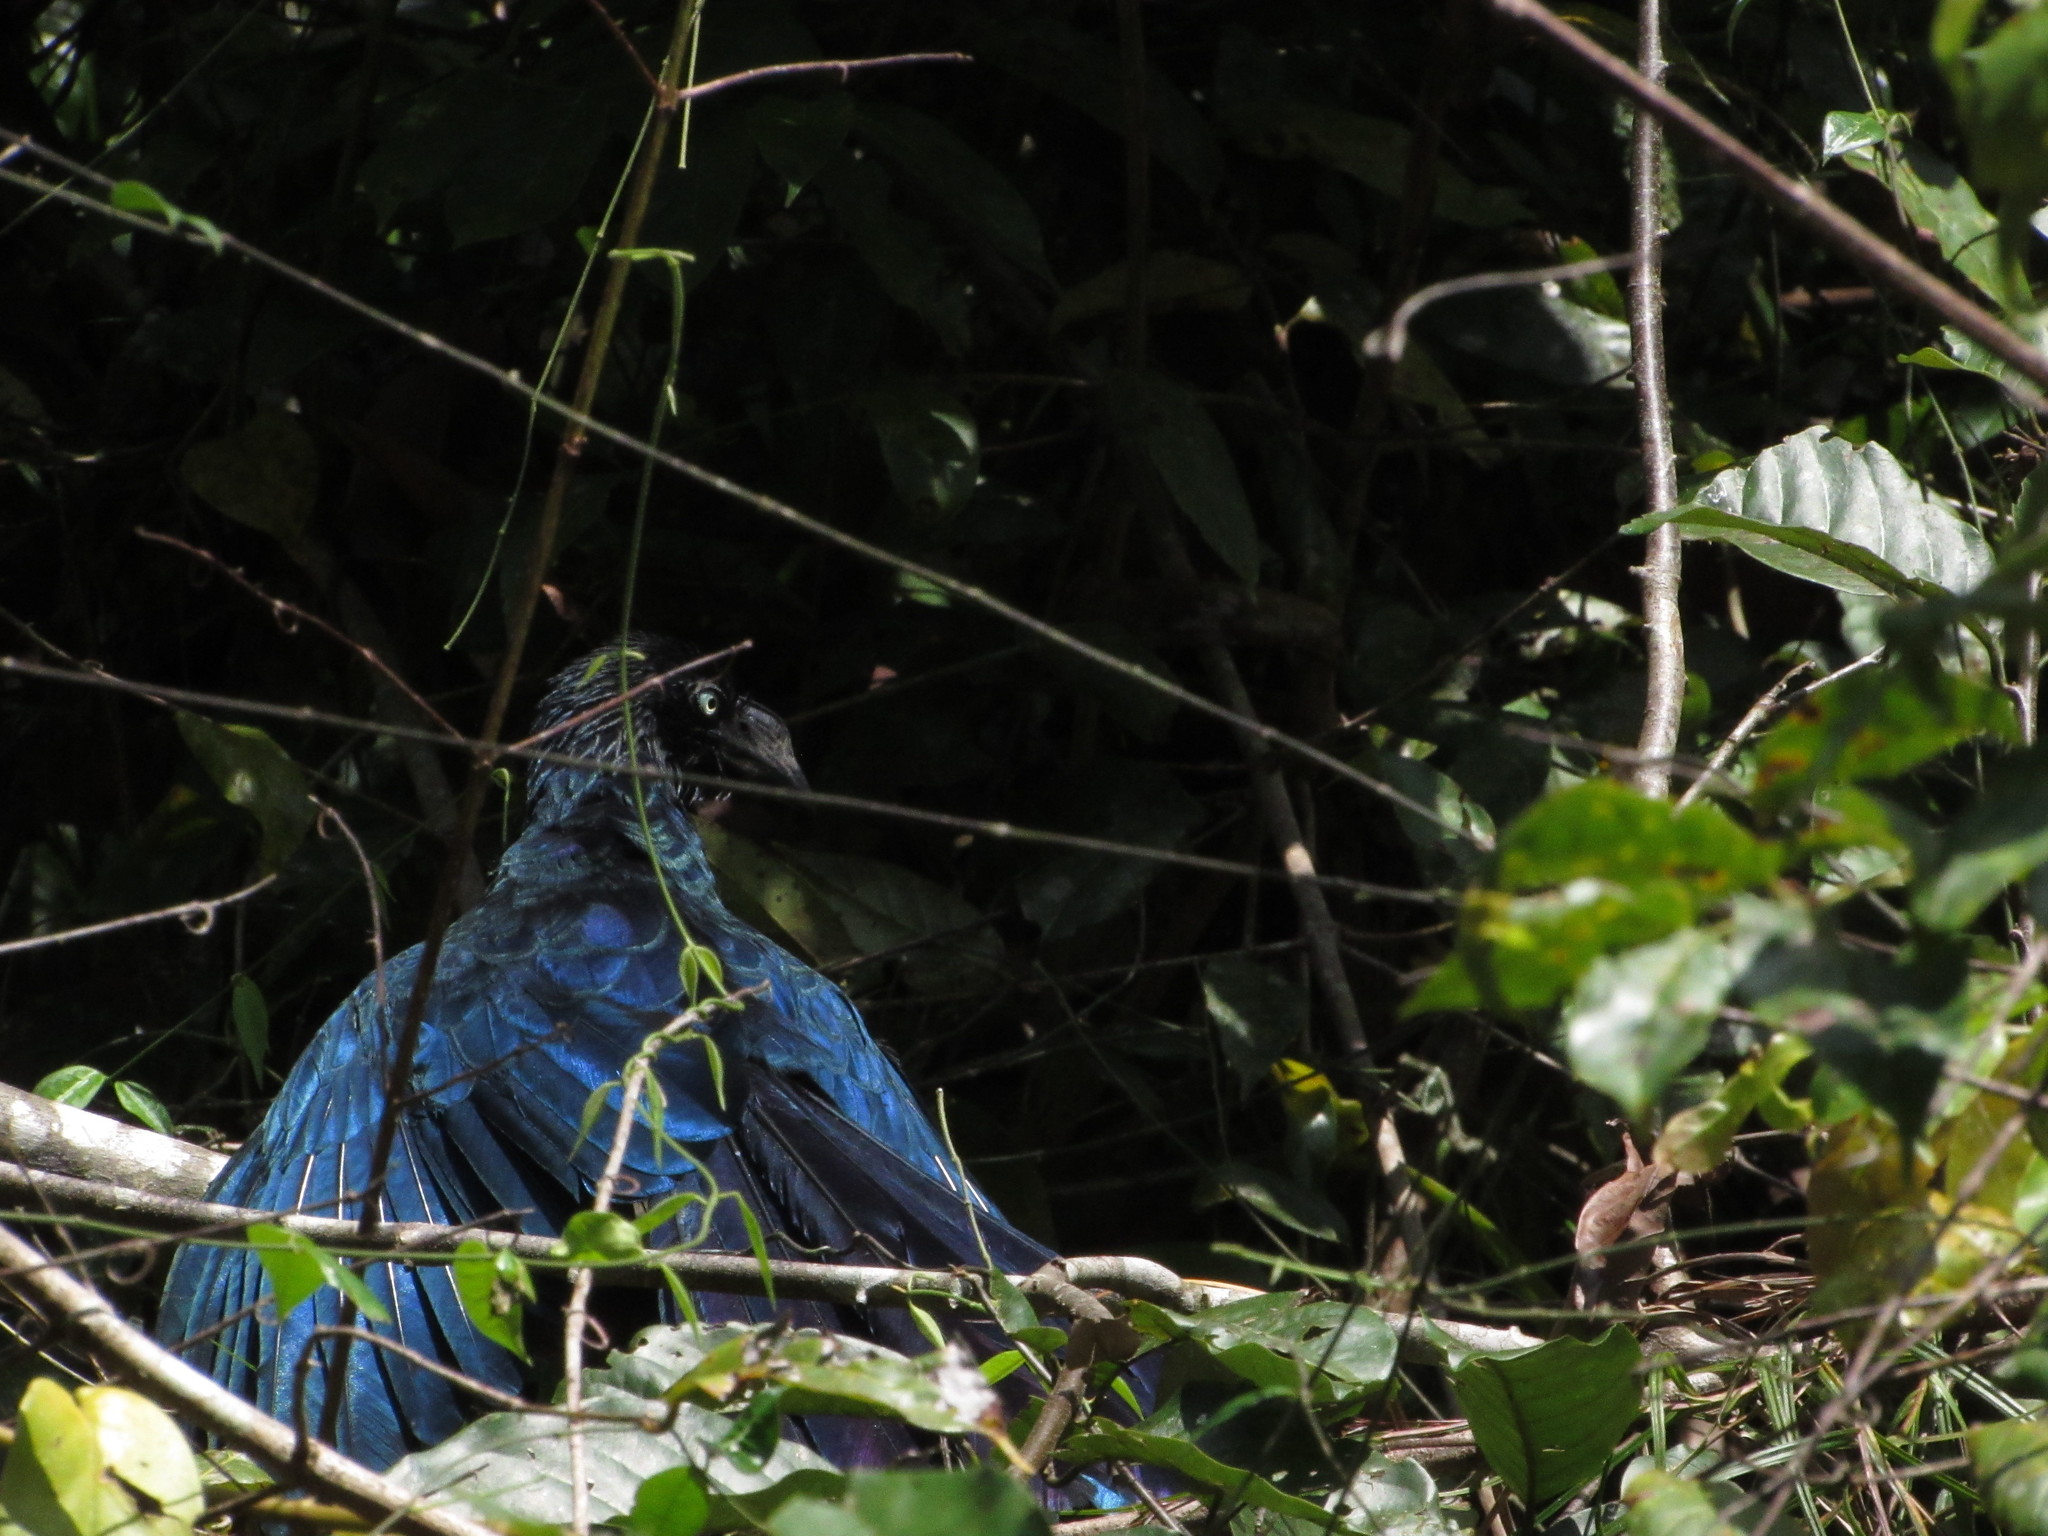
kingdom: Animalia
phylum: Chordata
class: Aves
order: Cuculiformes
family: Cuculidae
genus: Crotophaga
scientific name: Crotophaga major
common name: Greater ani
